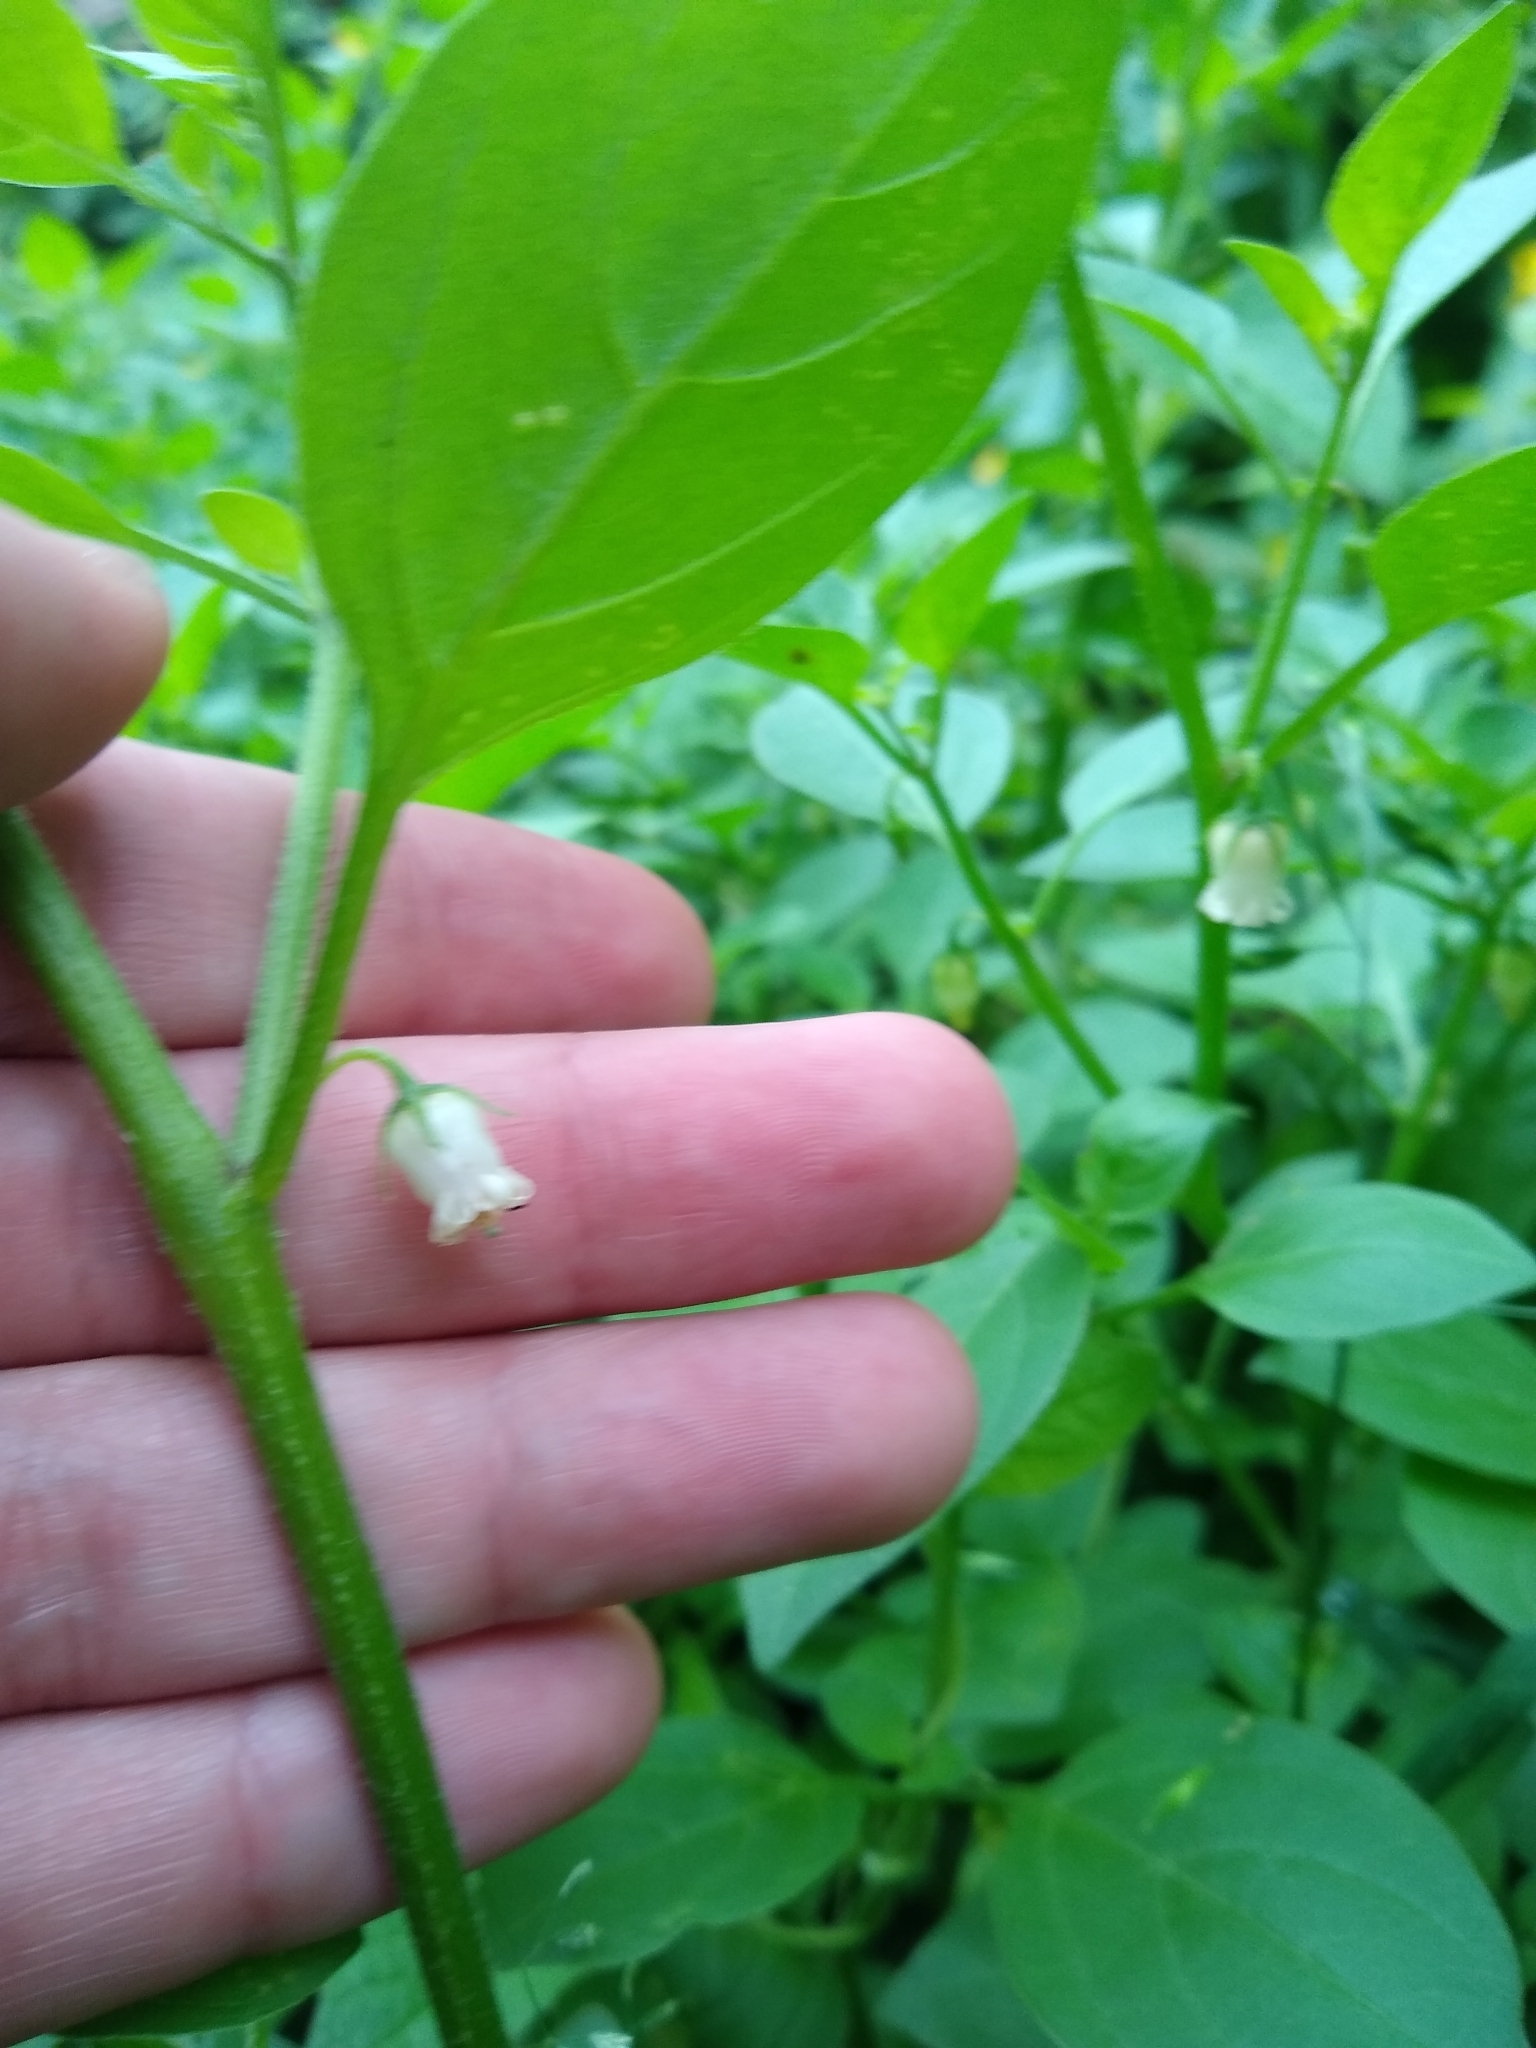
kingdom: Plantae
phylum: Tracheophyta
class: Magnoliopsida
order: Solanales
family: Solanaceae
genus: Salpichroa
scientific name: Salpichroa origanifolia
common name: Lily-of-the-valley-vine
